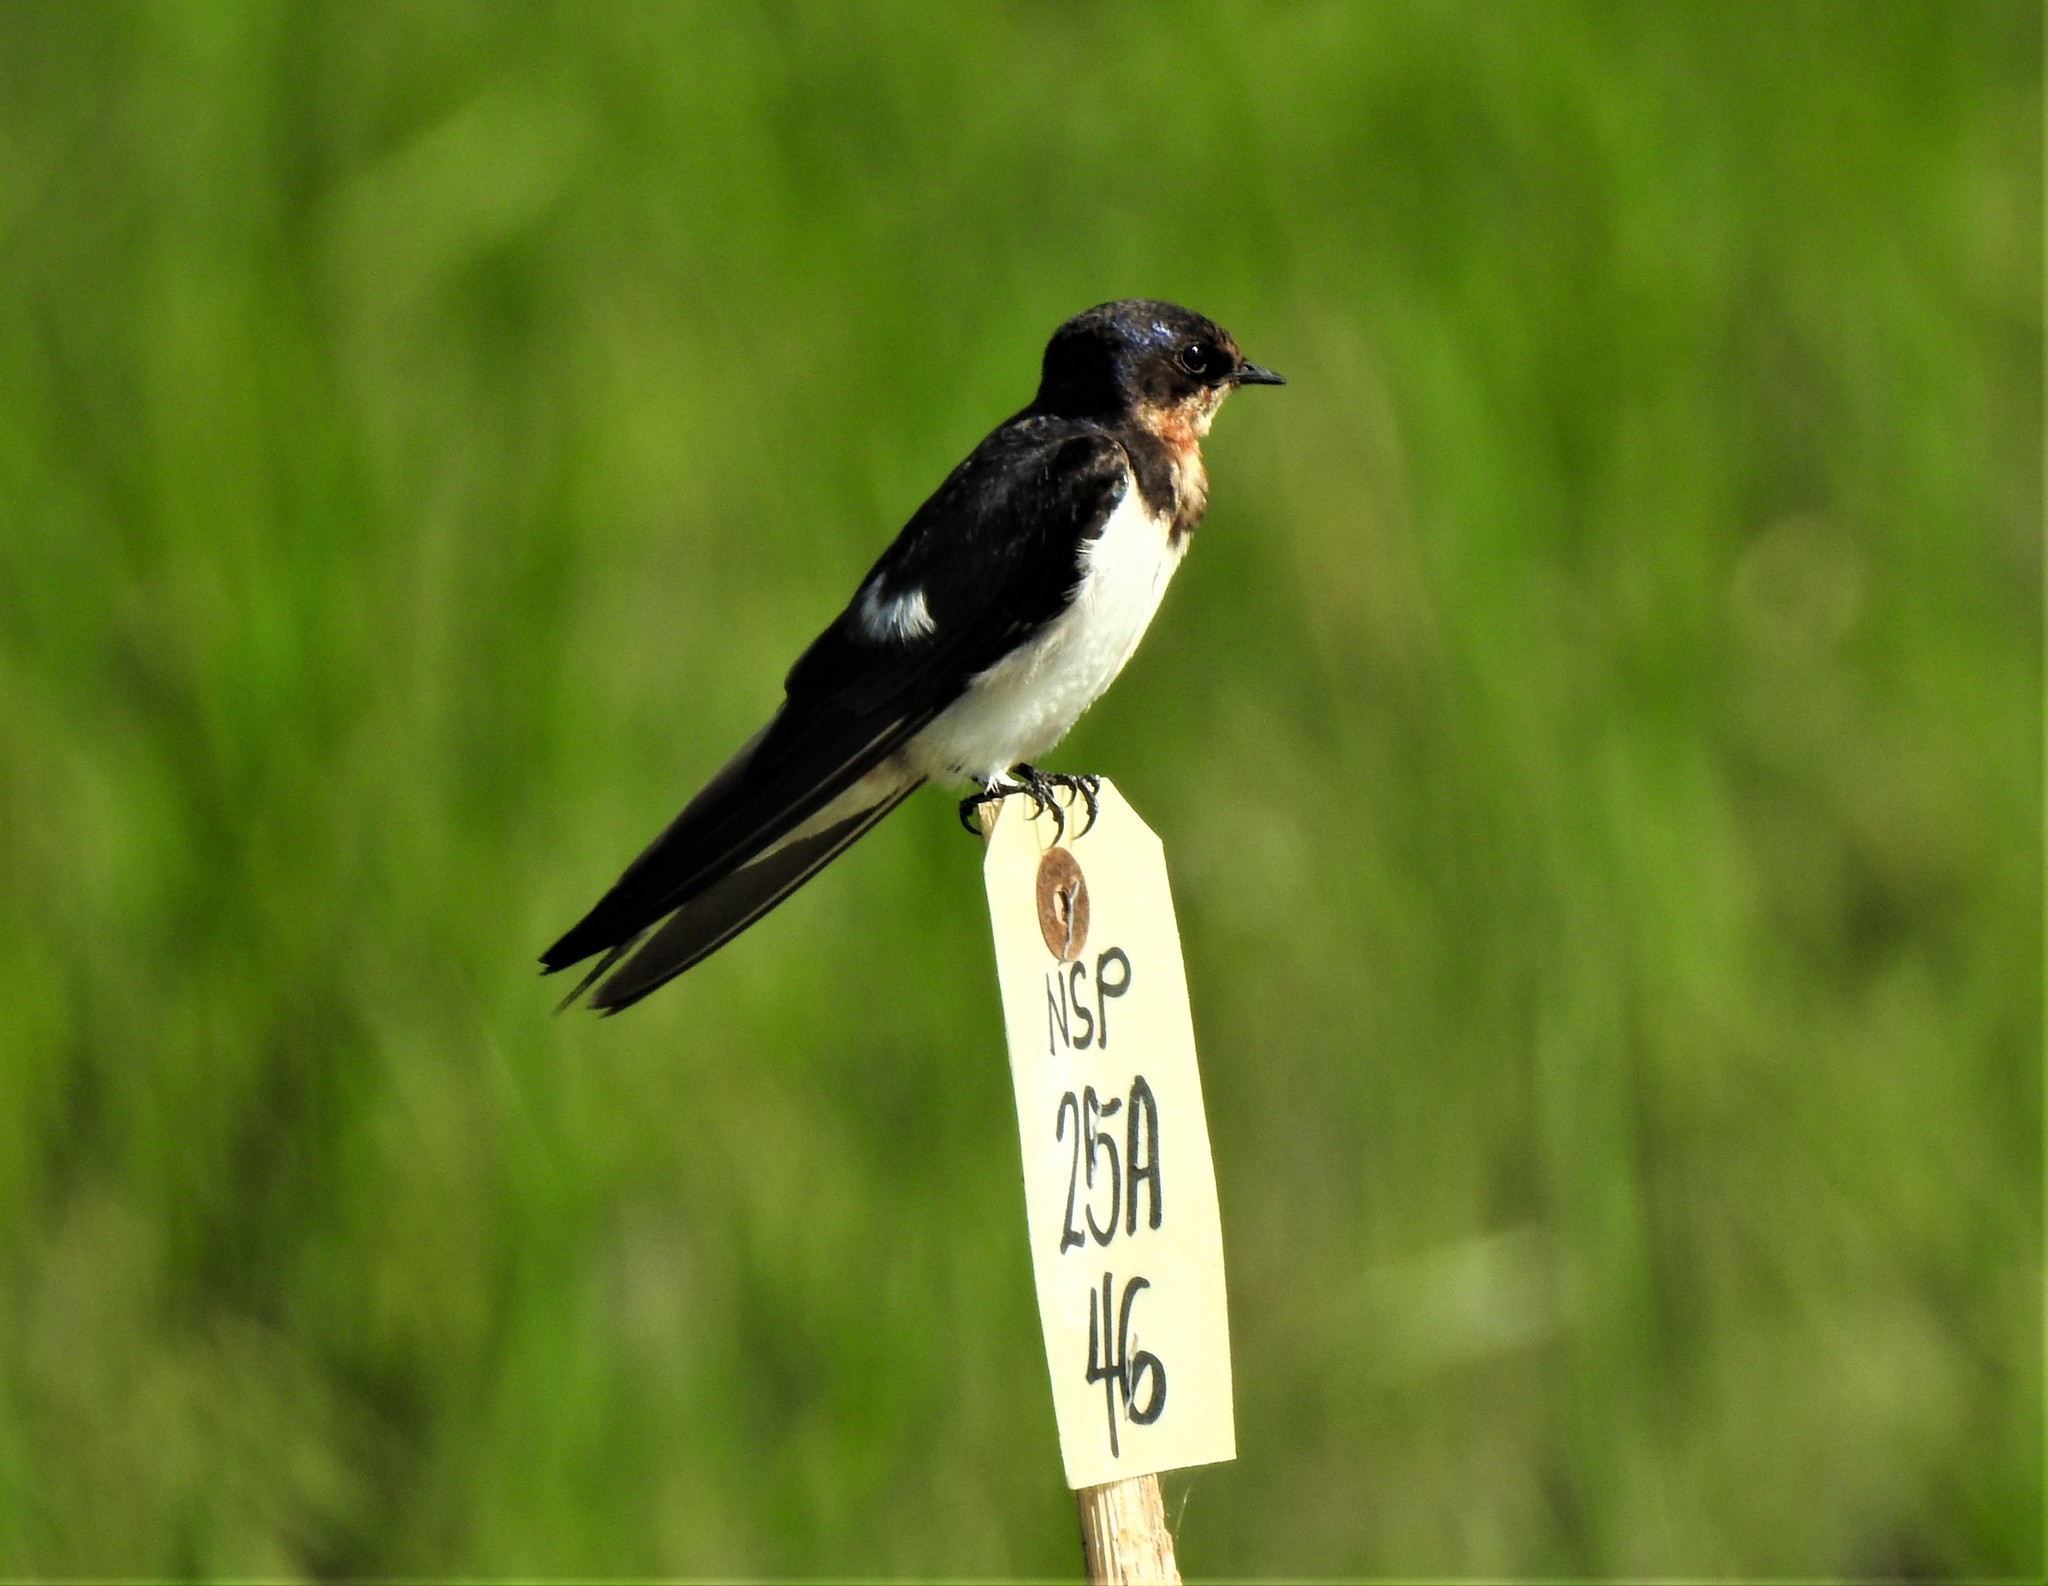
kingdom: Animalia
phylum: Chordata
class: Aves
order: Passeriformes
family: Hirundinidae
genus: Hirundo
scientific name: Hirundo rustica
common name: Barn swallow
